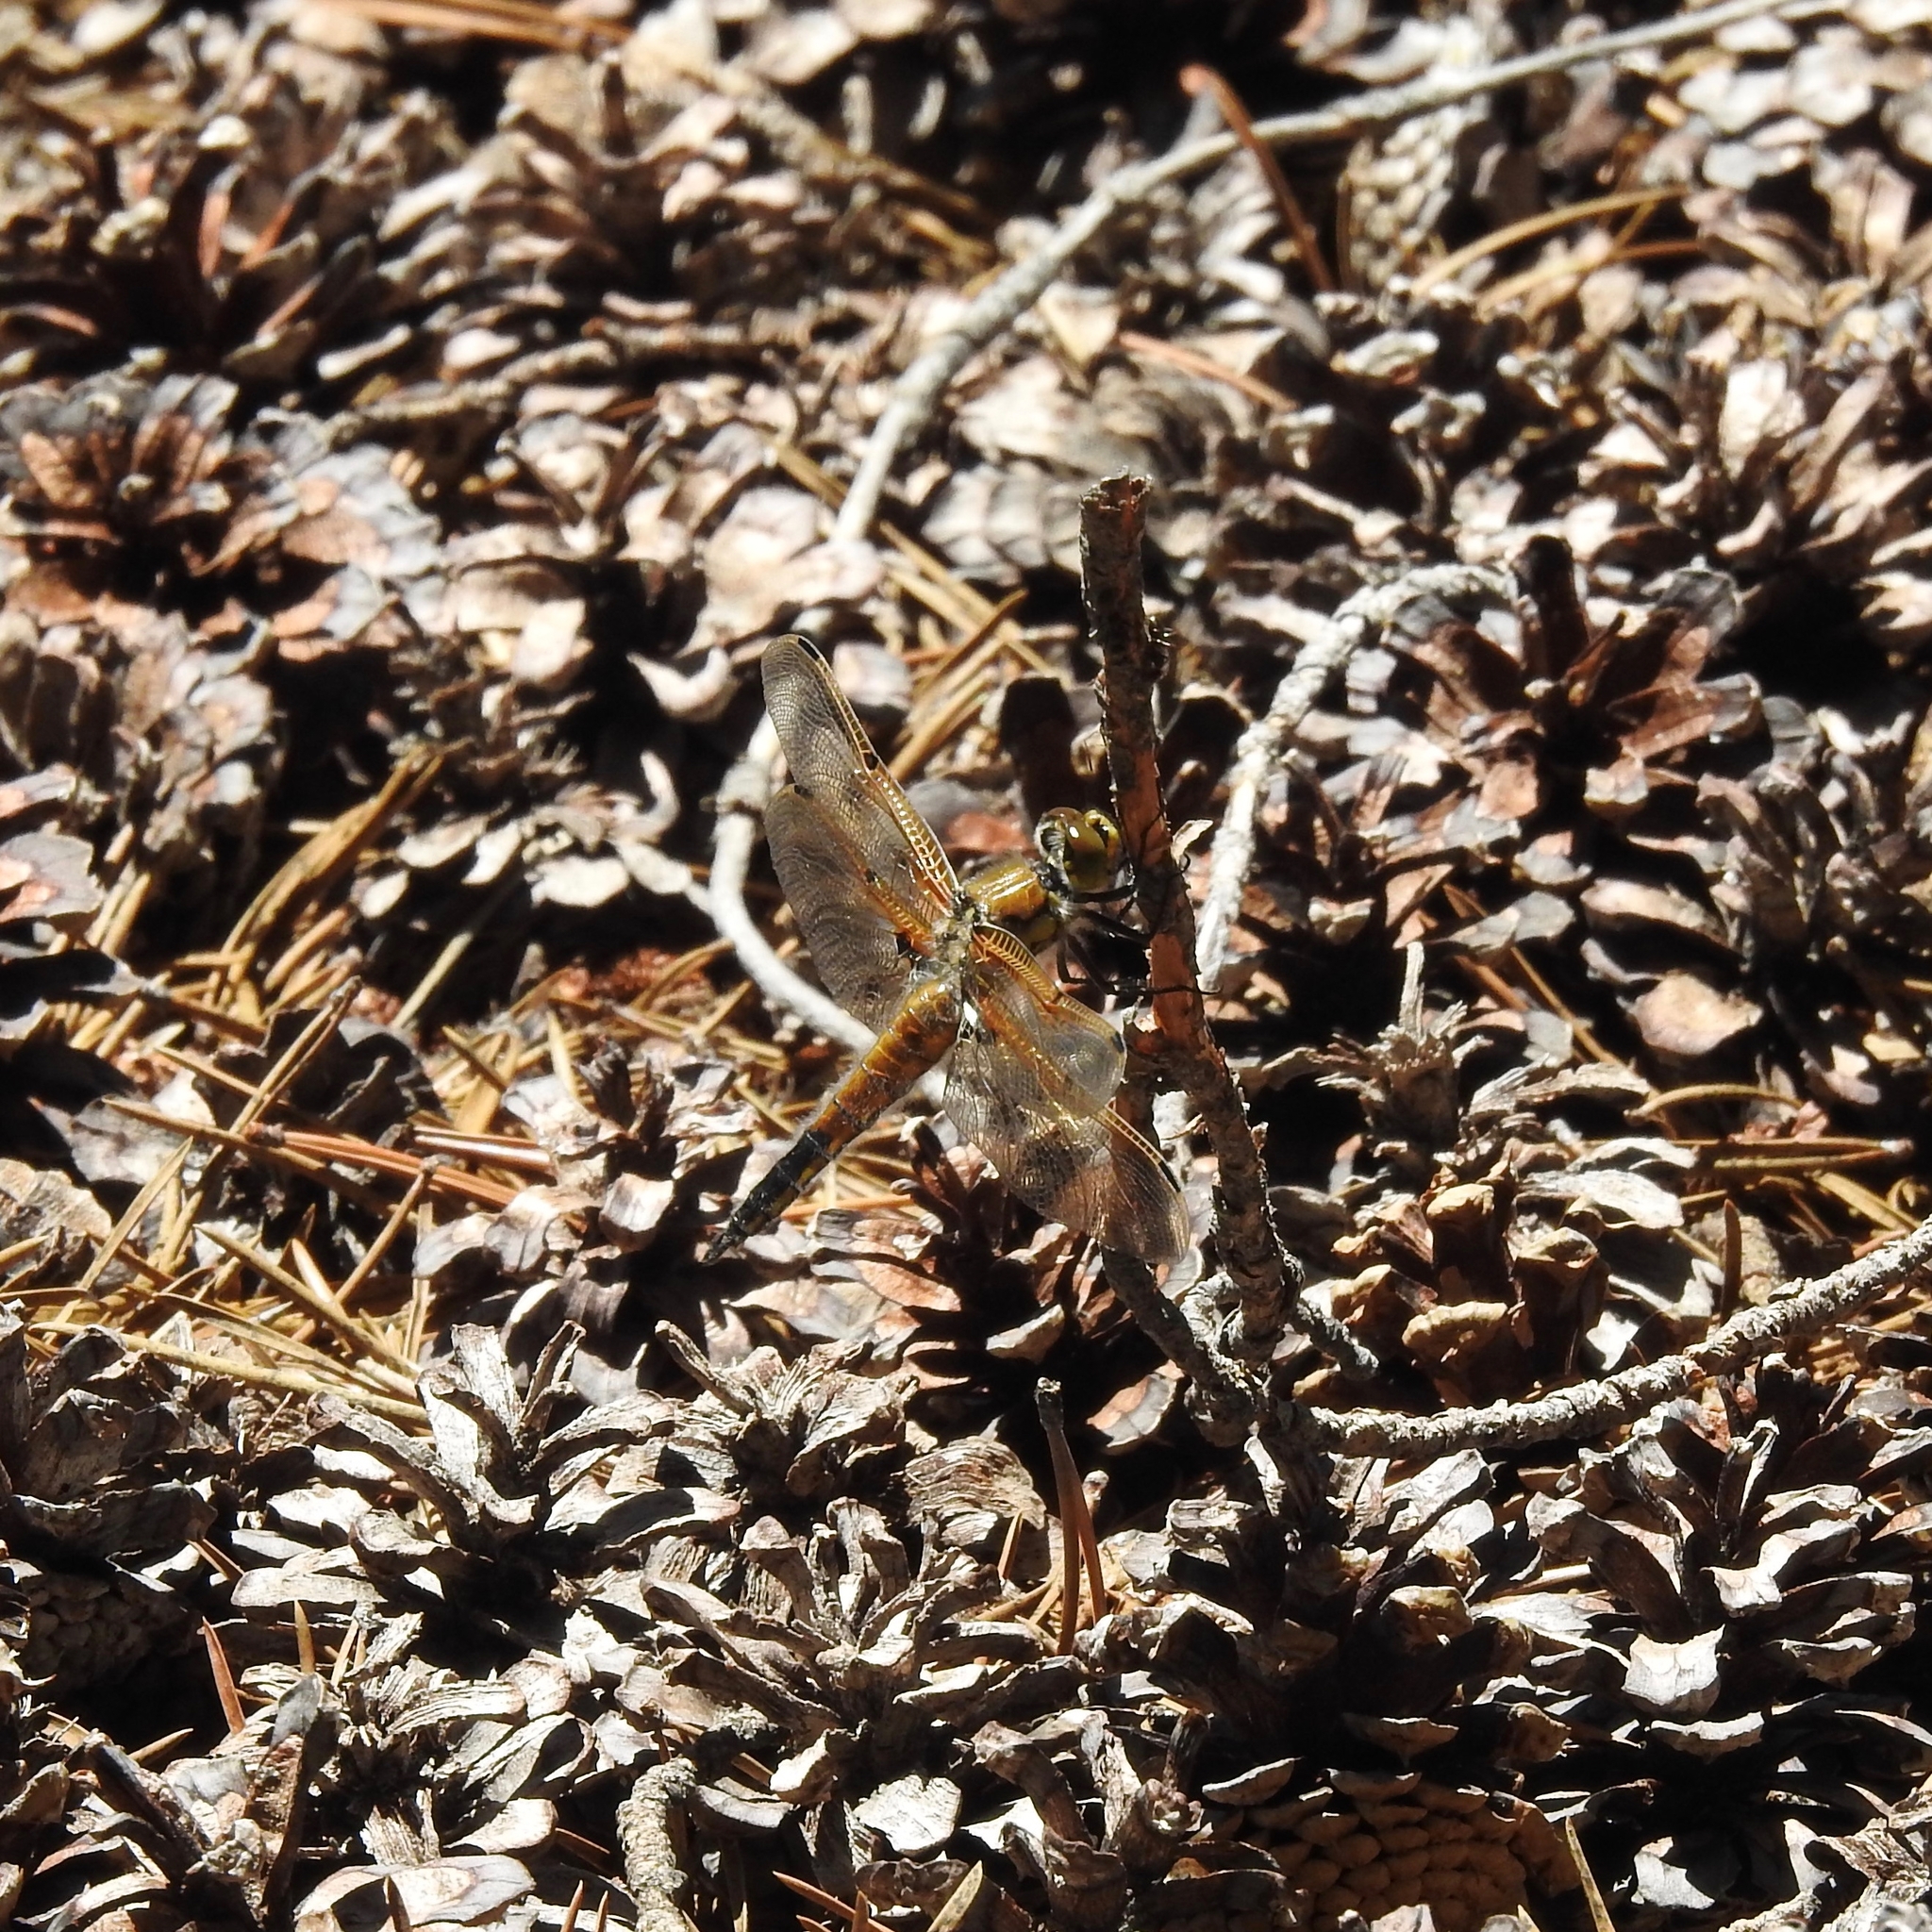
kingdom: Animalia
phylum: Arthropoda
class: Insecta
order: Odonata
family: Libellulidae
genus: Libellula
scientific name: Libellula quadrimaculata
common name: Four-spotted chaser
